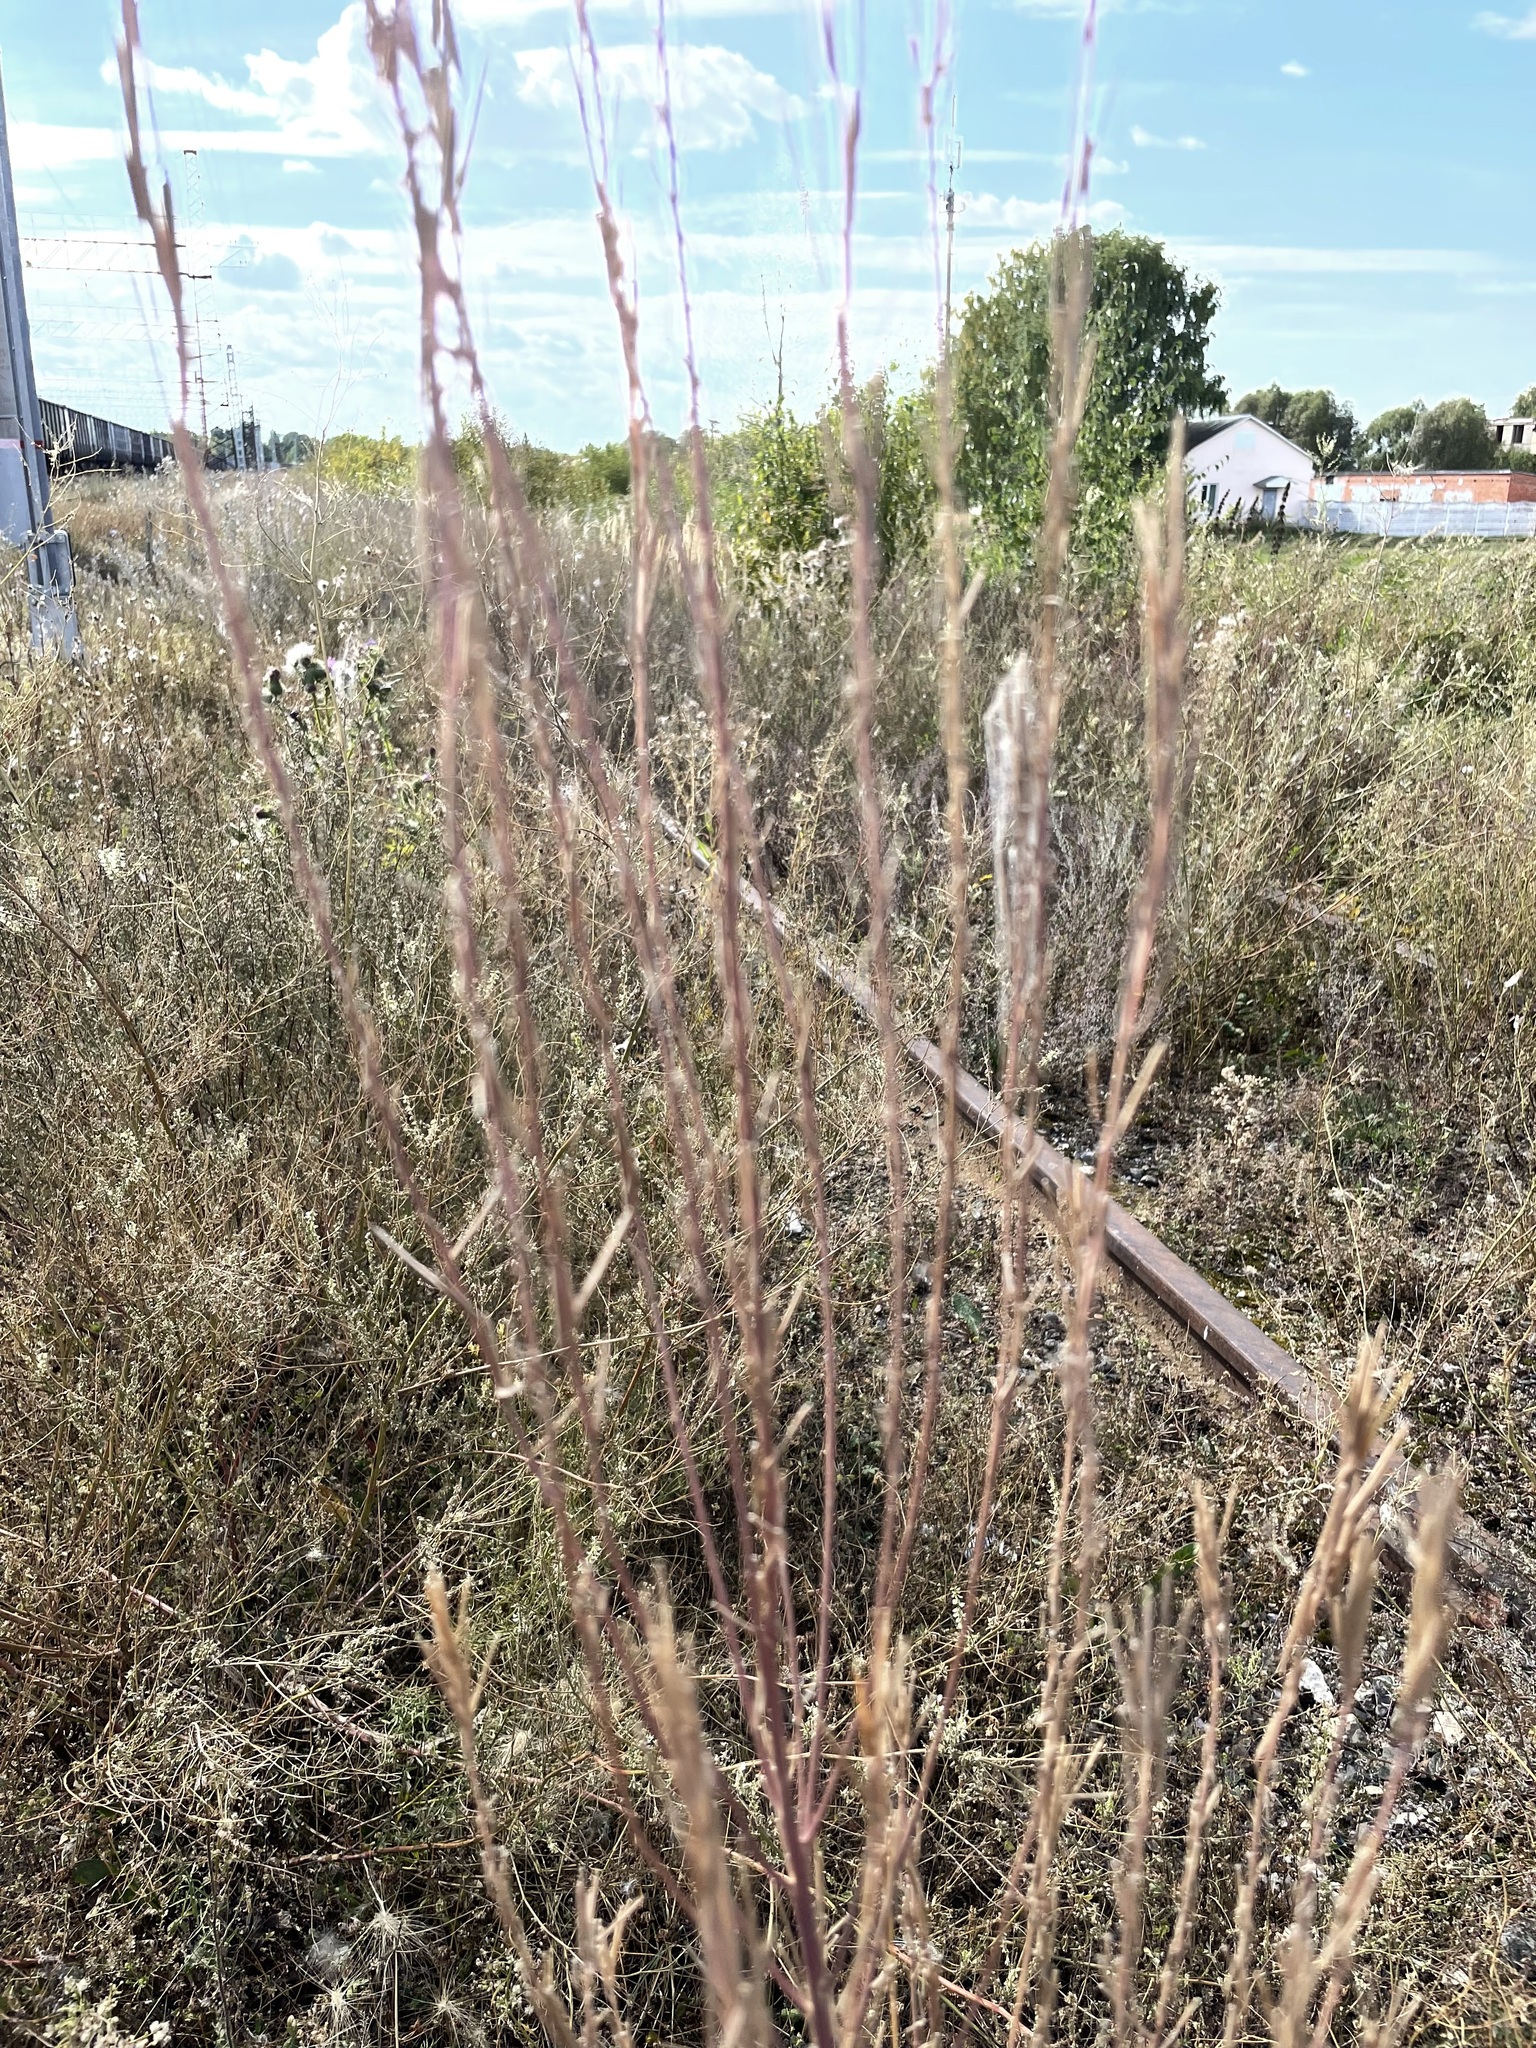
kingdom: Plantae
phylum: Tracheophyta
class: Magnoliopsida
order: Brassicales
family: Brassicaceae
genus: Erysimum
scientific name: Erysimum hieraciifolium
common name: European wallflower
